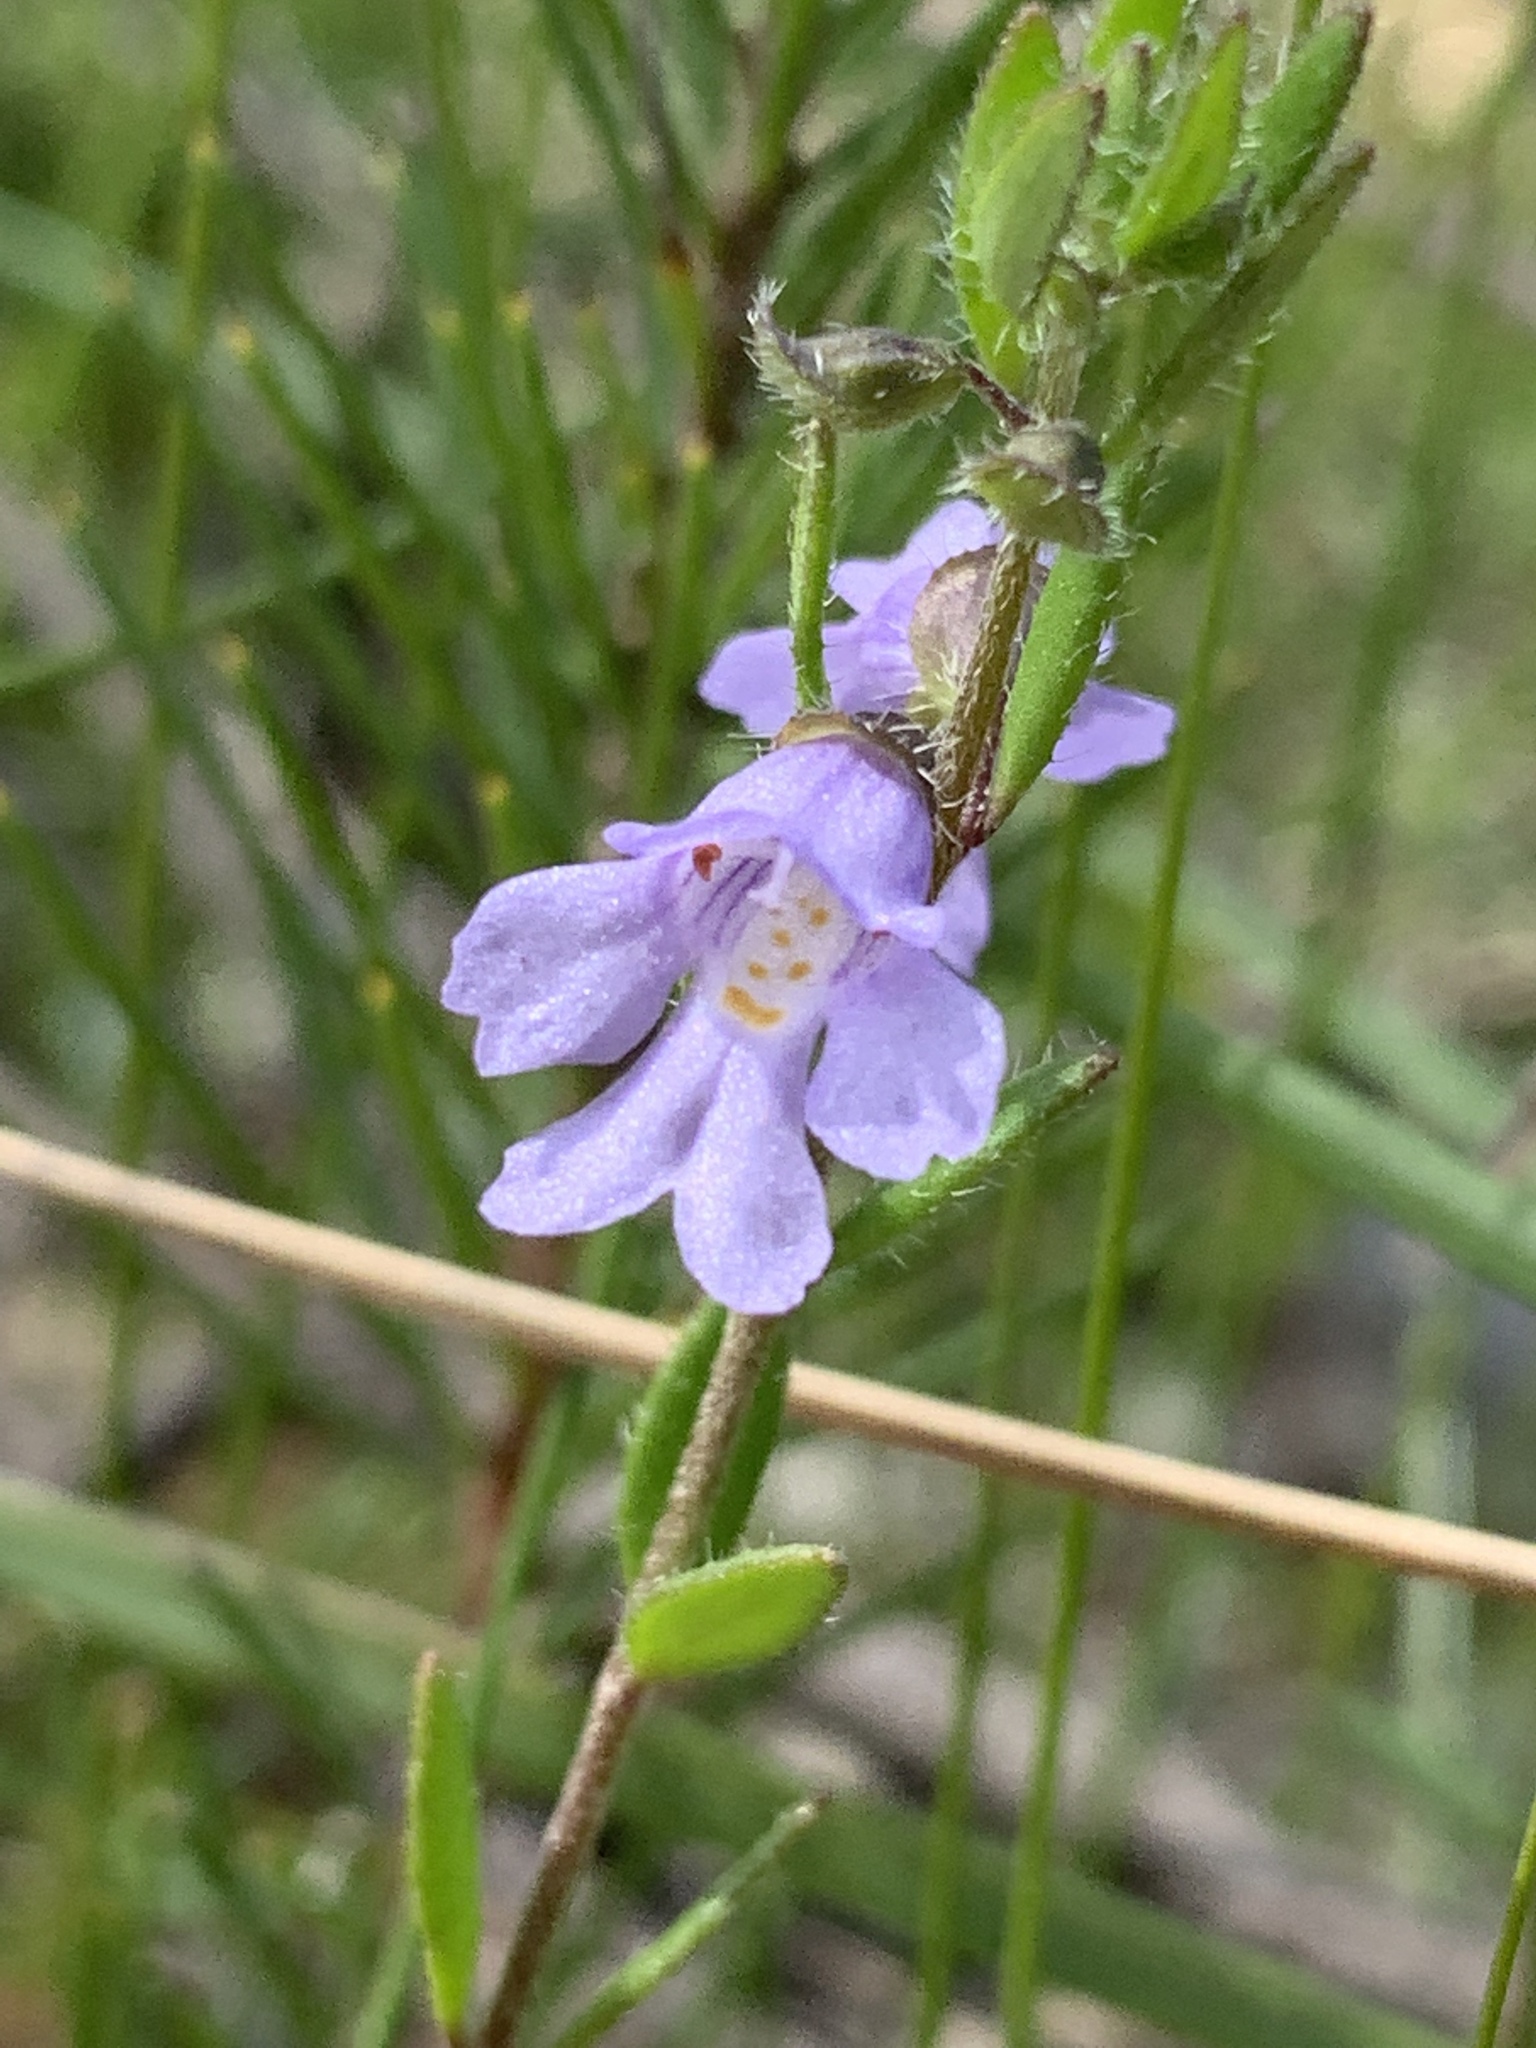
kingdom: Plantae
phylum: Tracheophyta
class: Magnoliopsida
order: Lamiales
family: Lamiaceae
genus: Prostanthera
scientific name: Prostanthera saxicola
